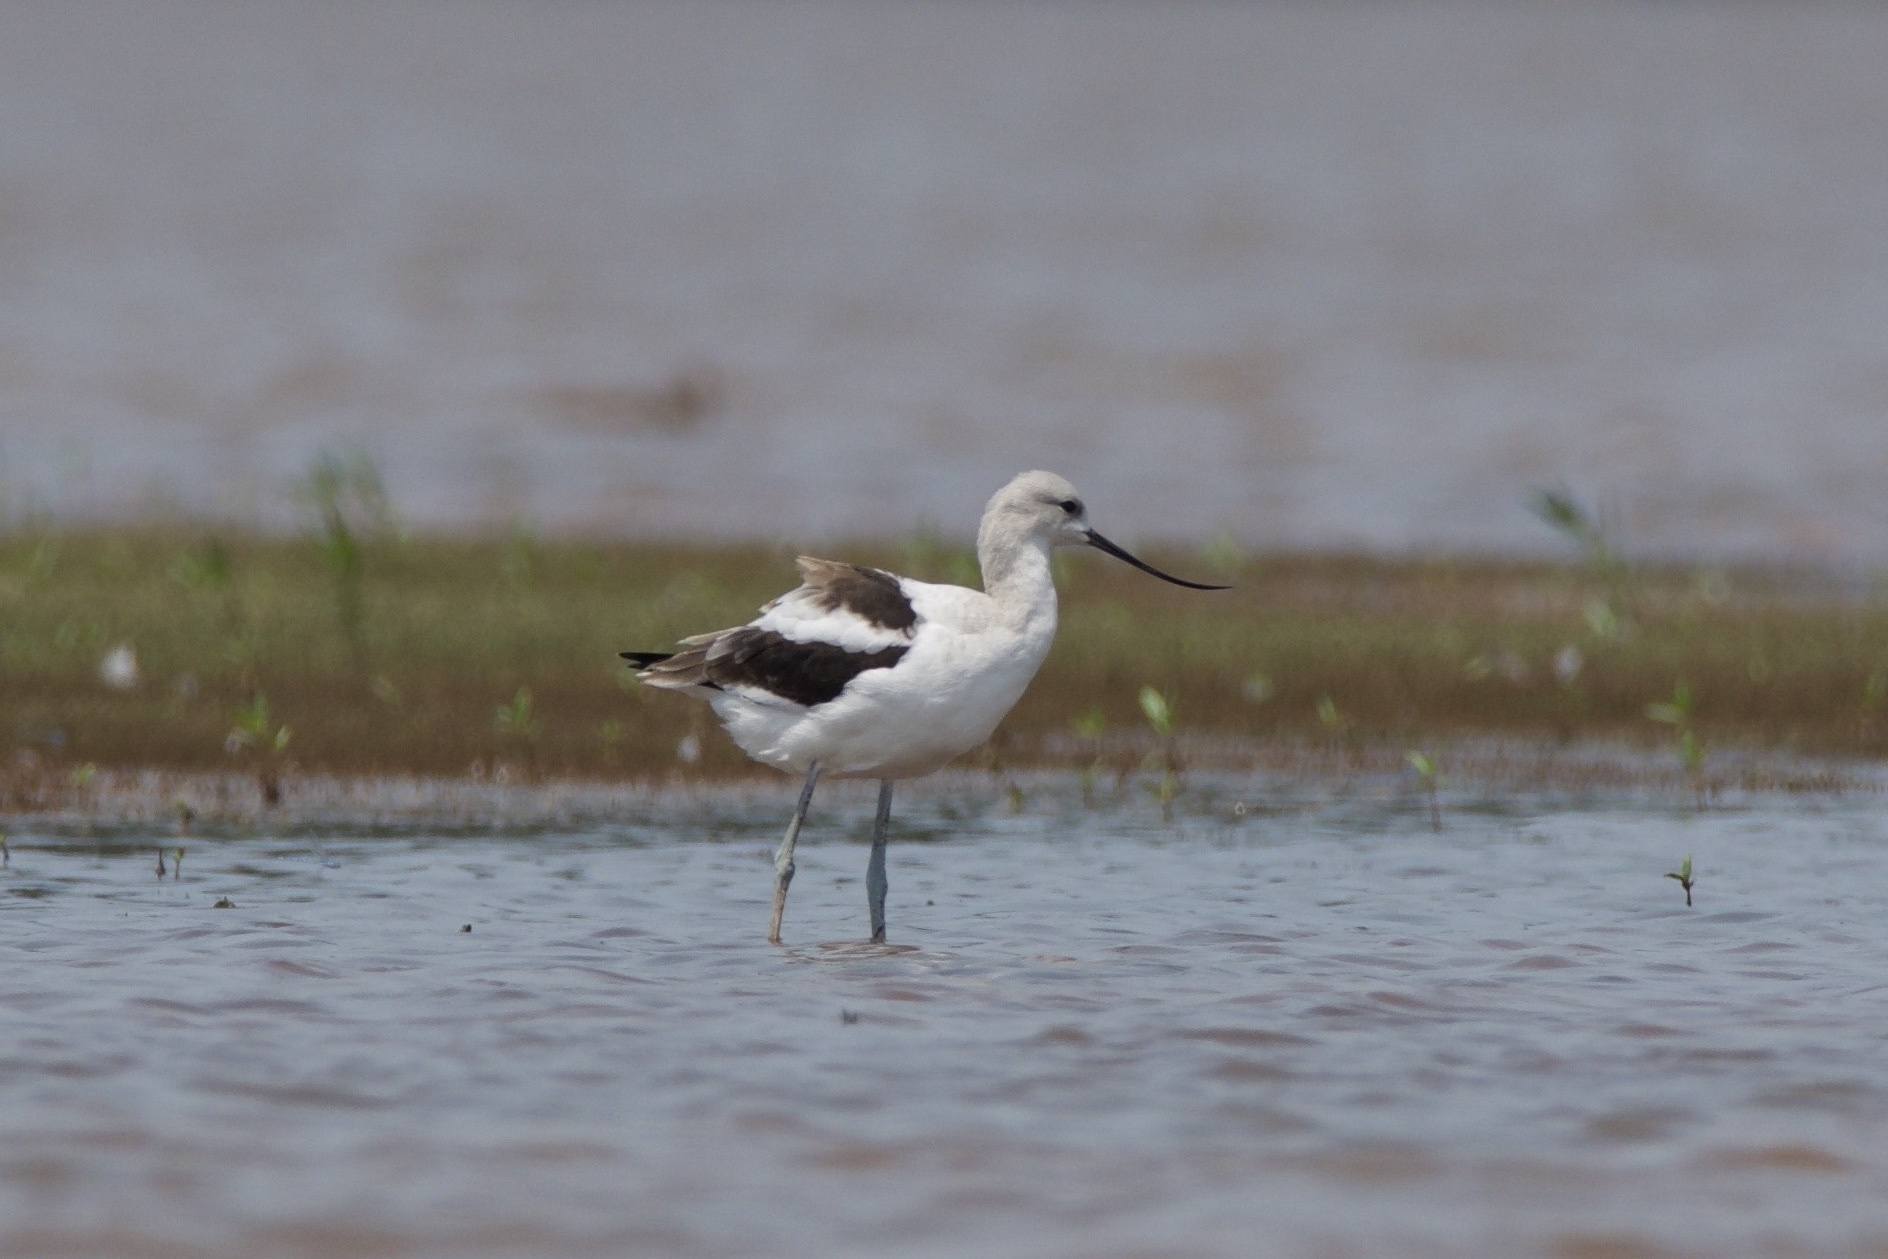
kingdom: Animalia
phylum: Chordata
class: Aves
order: Charadriiformes
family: Recurvirostridae
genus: Recurvirostra
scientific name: Recurvirostra americana
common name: American avocet
